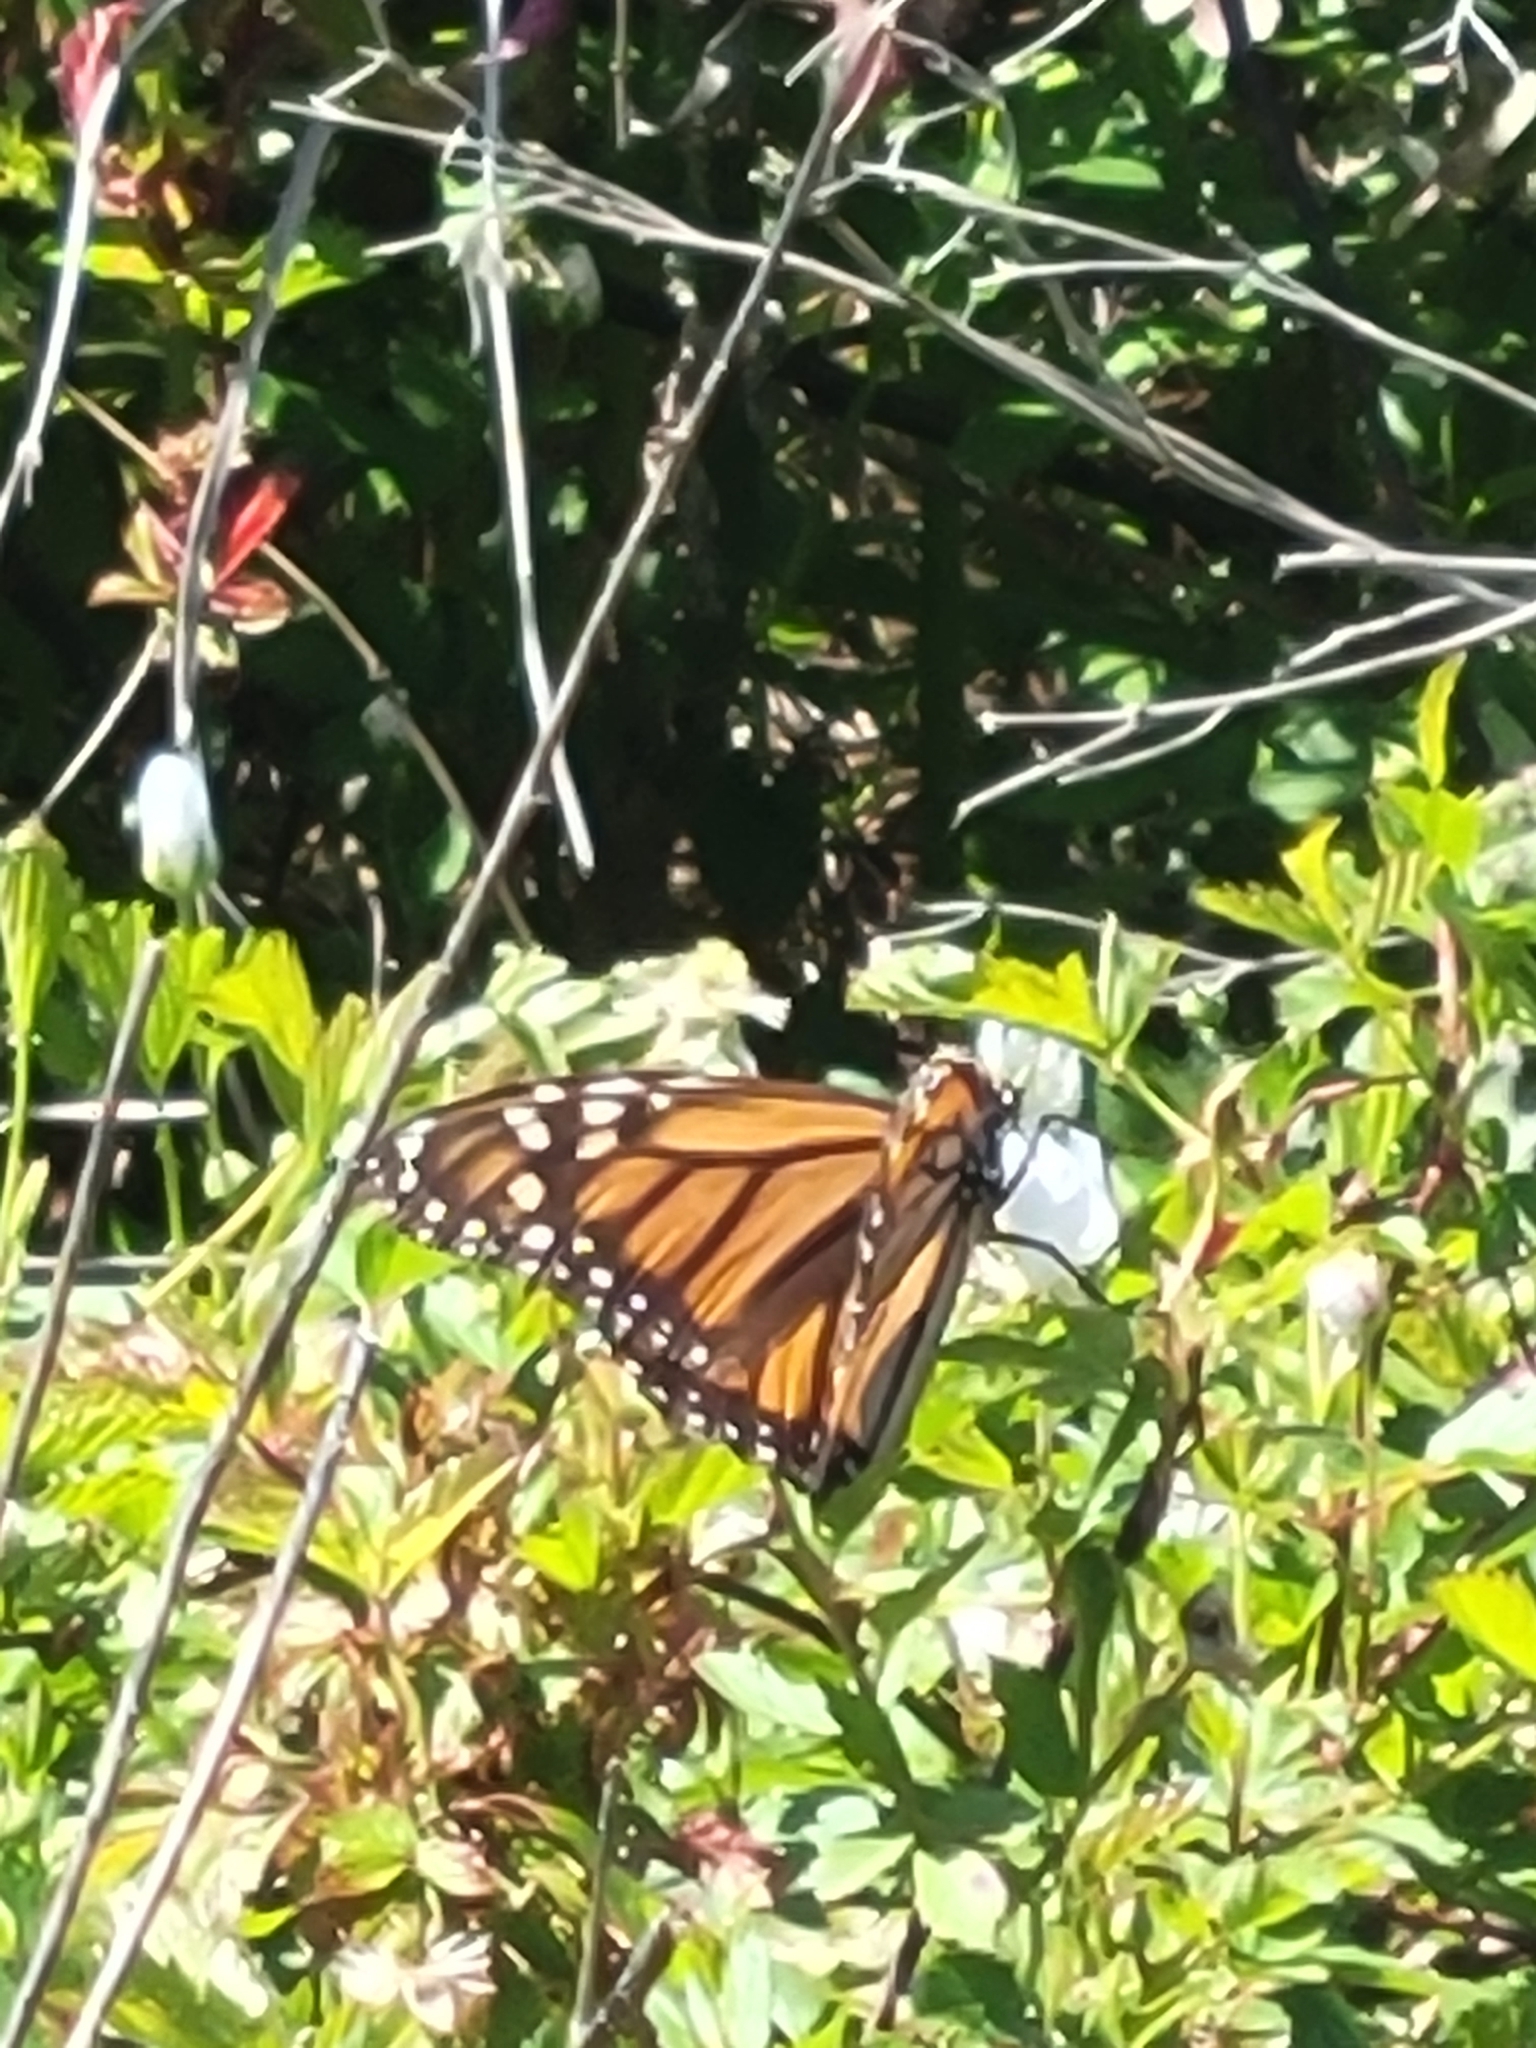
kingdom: Animalia
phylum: Arthropoda
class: Insecta
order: Lepidoptera
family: Nymphalidae
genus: Danaus
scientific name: Danaus plexippus
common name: Monarch
